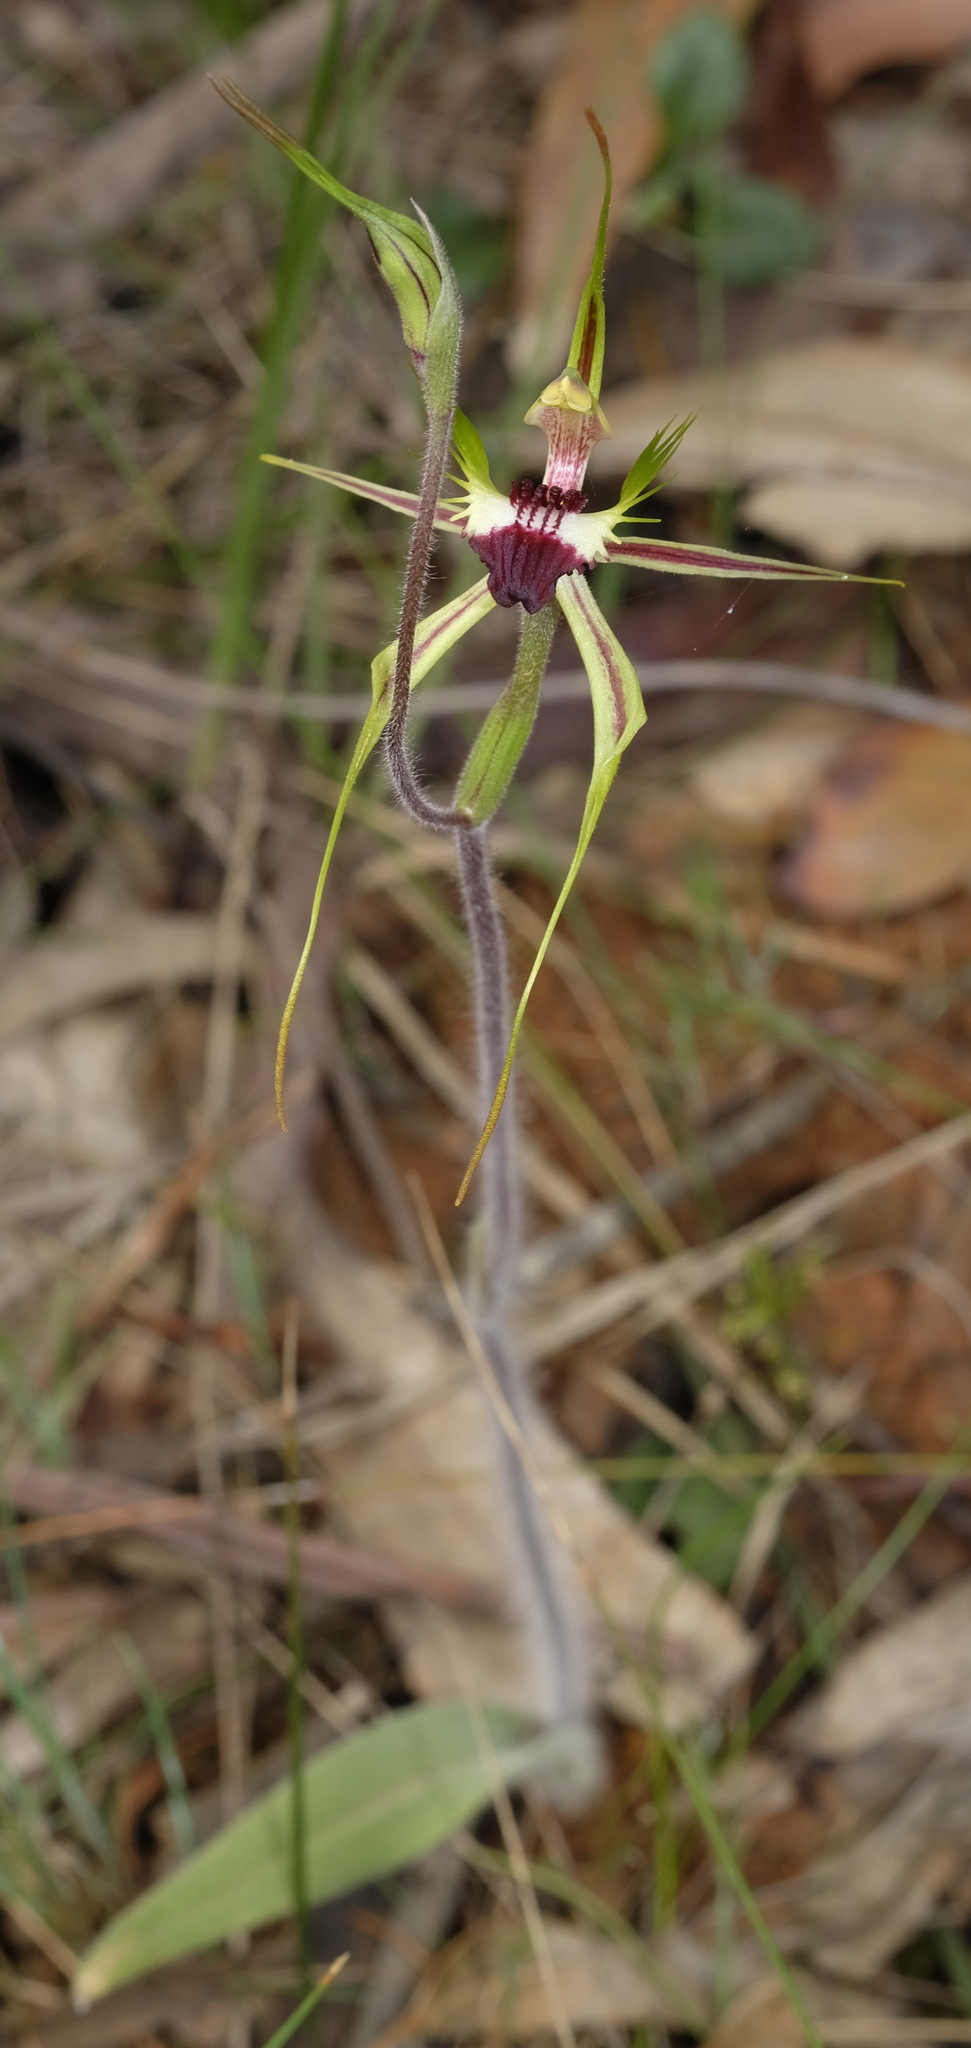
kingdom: Plantae
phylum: Tracheophyta
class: Liliopsida
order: Asparagales
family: Orchidaceae
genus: Caladenia
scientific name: Caladenia tentaculata
